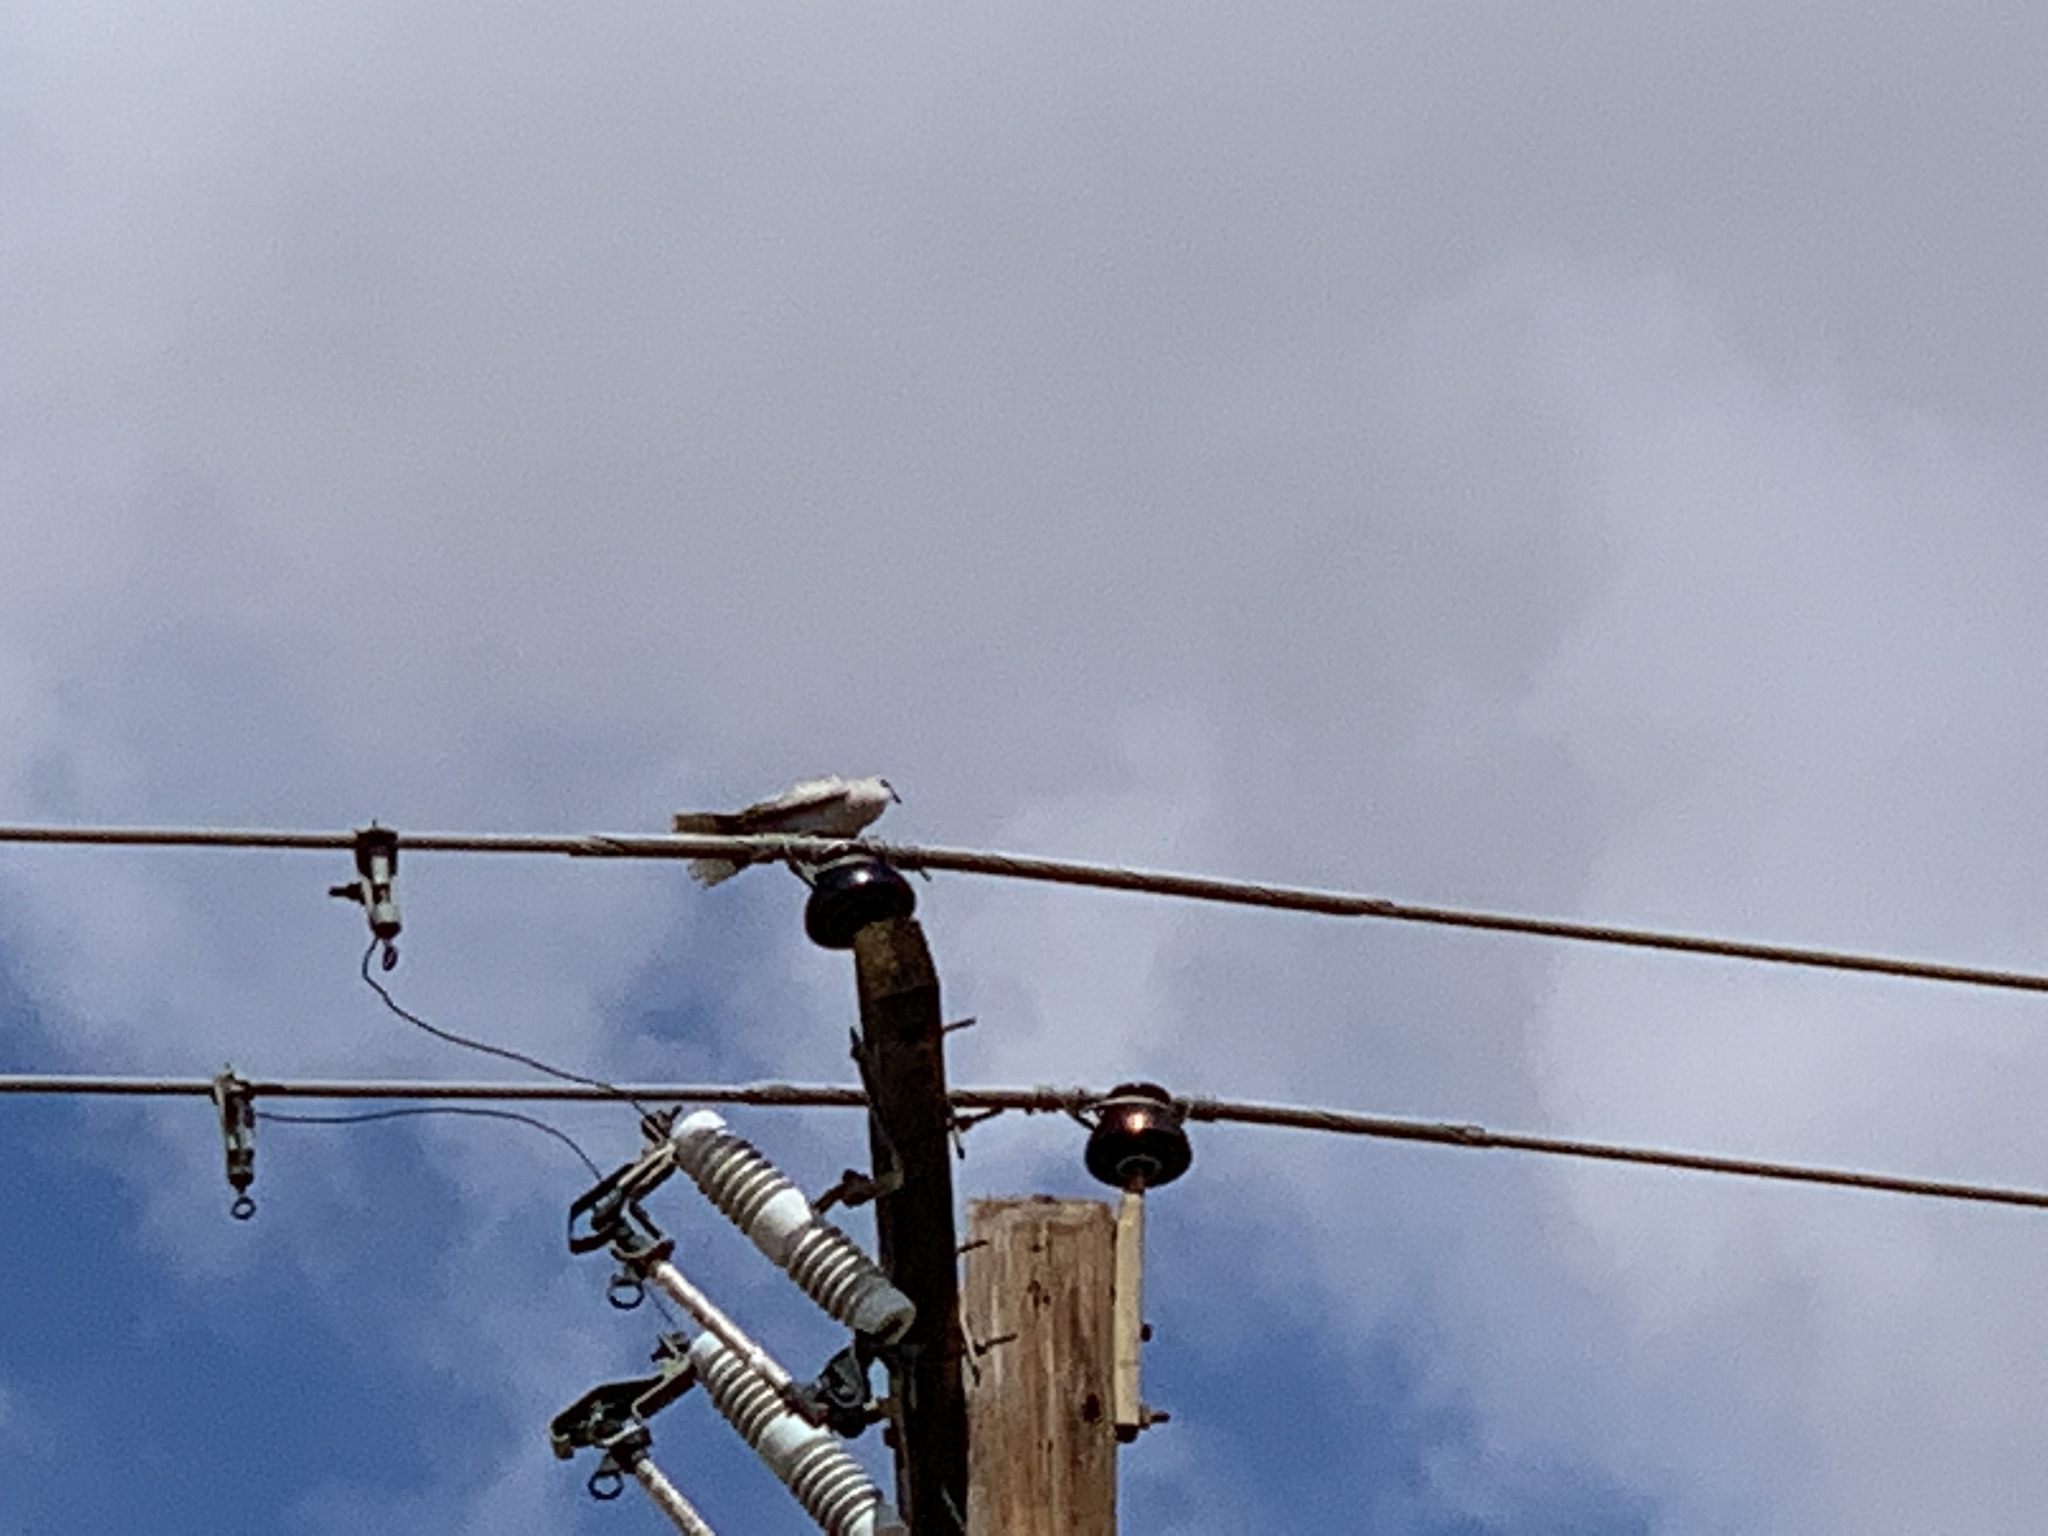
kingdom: Animalia
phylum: Chordata
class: Aves
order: Columbiformes
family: Columbidae
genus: Streptopelia
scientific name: Streptopelia decaocto
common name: Eurasian collared dove
